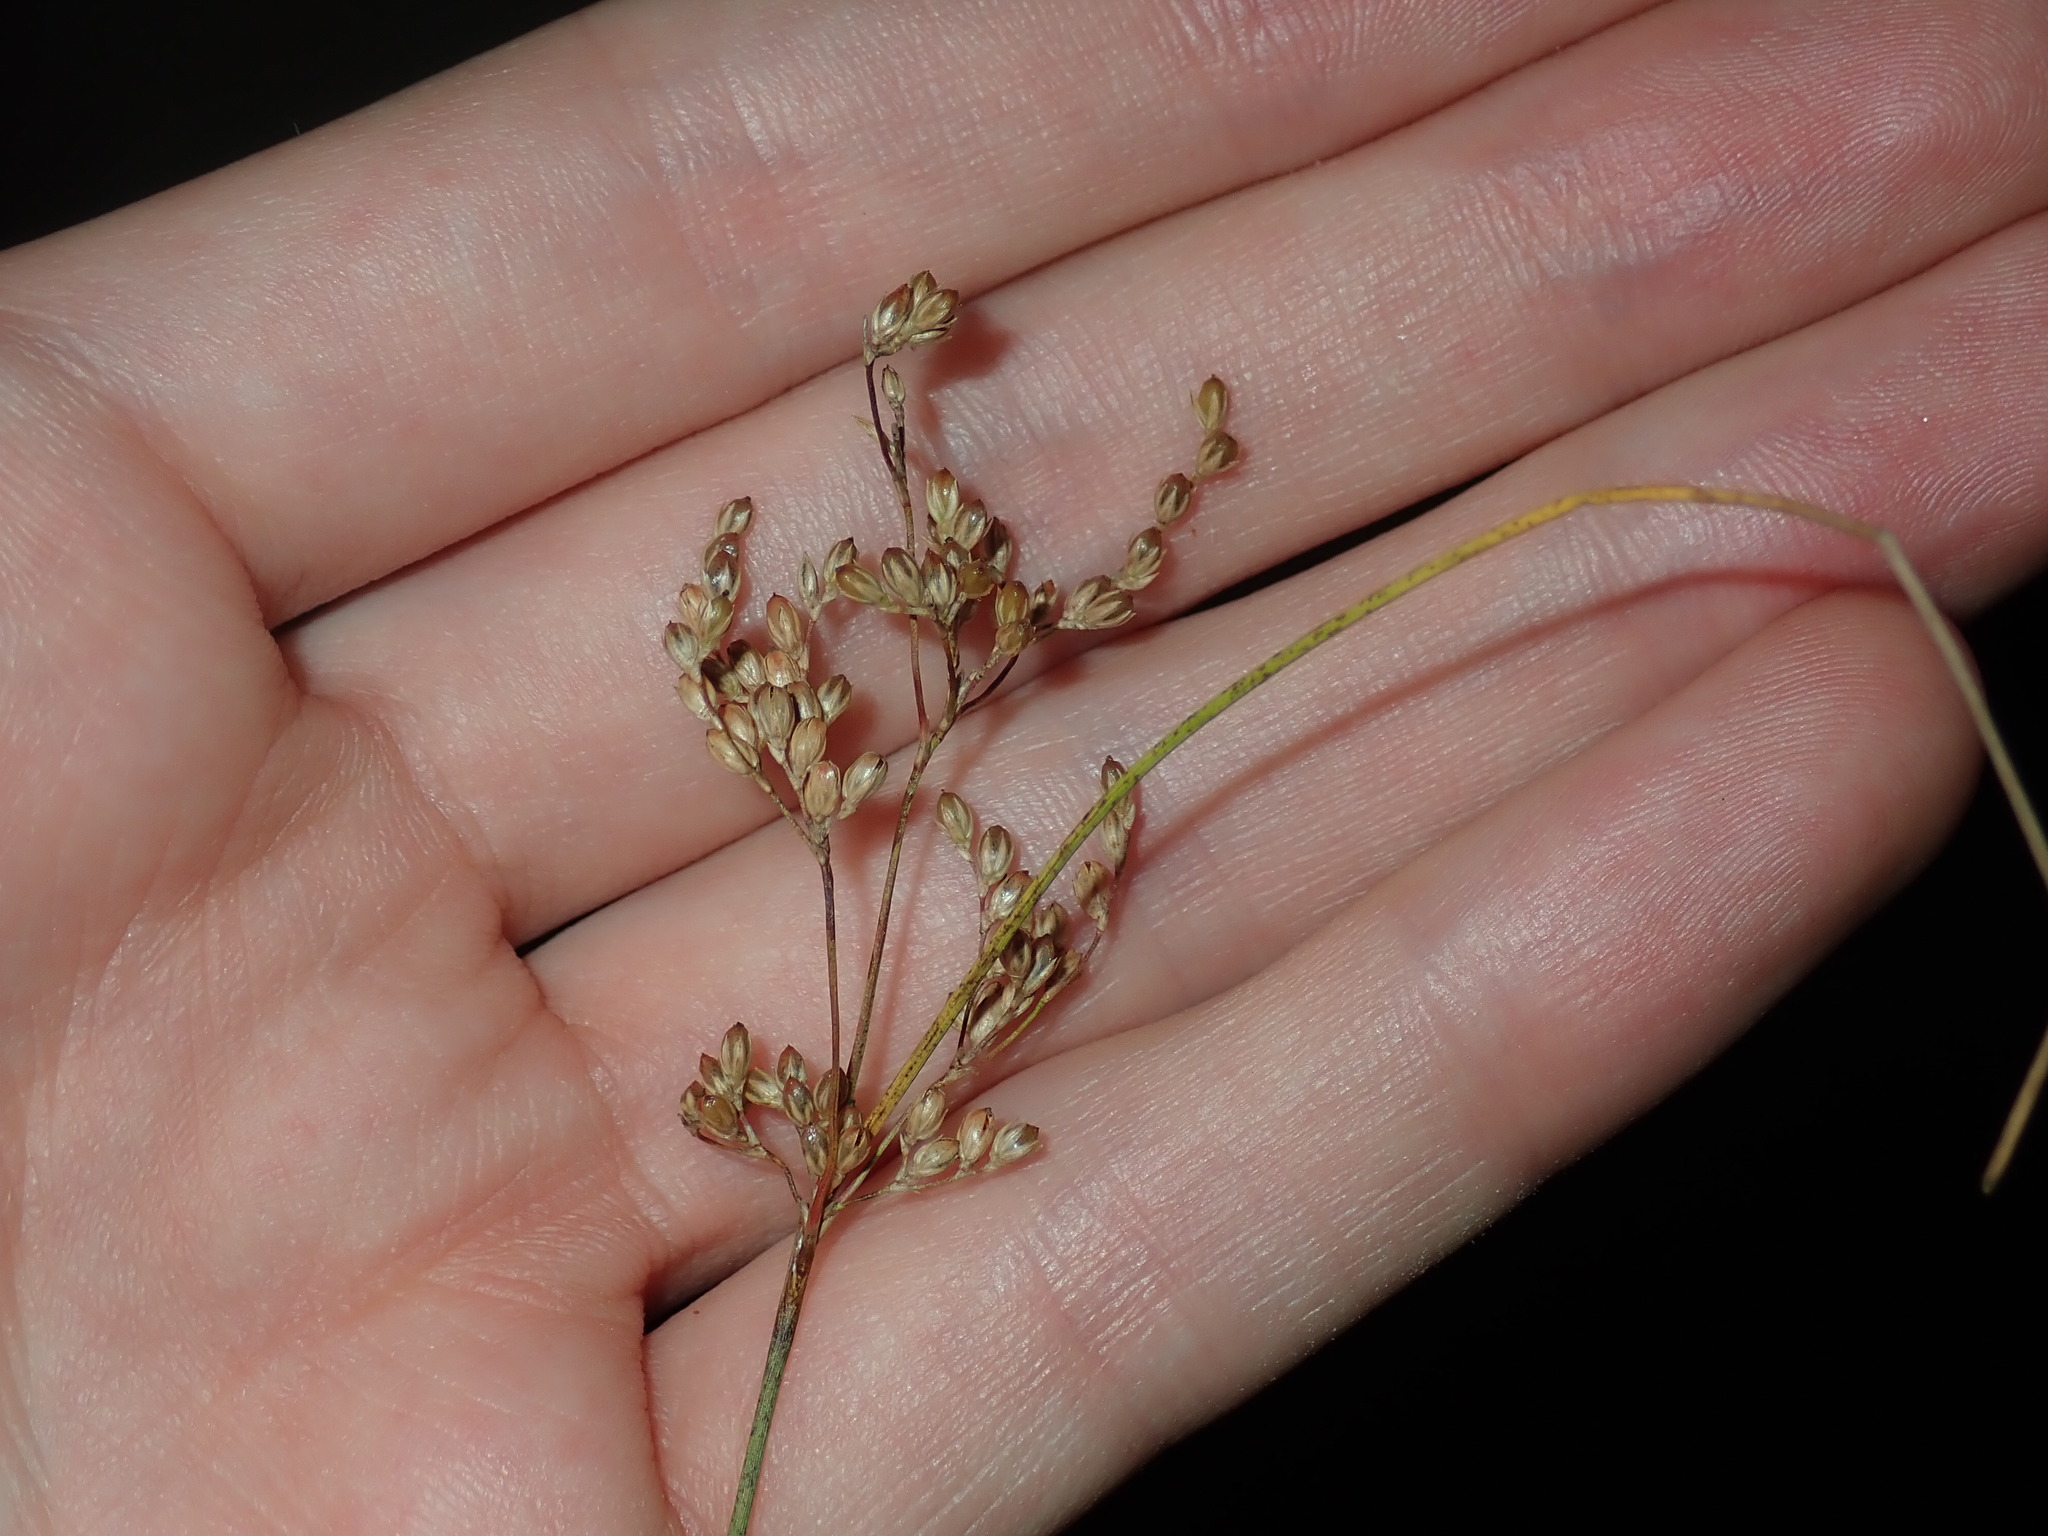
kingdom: Plantae
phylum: Tracheophyta
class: Liliopsida
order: Poales
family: Juncaceae
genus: Juncus
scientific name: Juncus usitatus
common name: Rush
